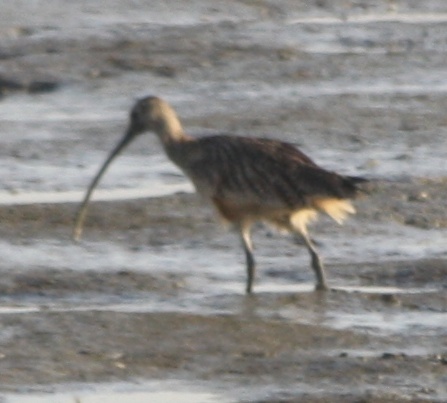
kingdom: Animalia
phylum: Chordata
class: Aves
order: Charadriiformes
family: Scolopacidae
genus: Numenius
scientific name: Numenius americanus
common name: Long-billed curlew
